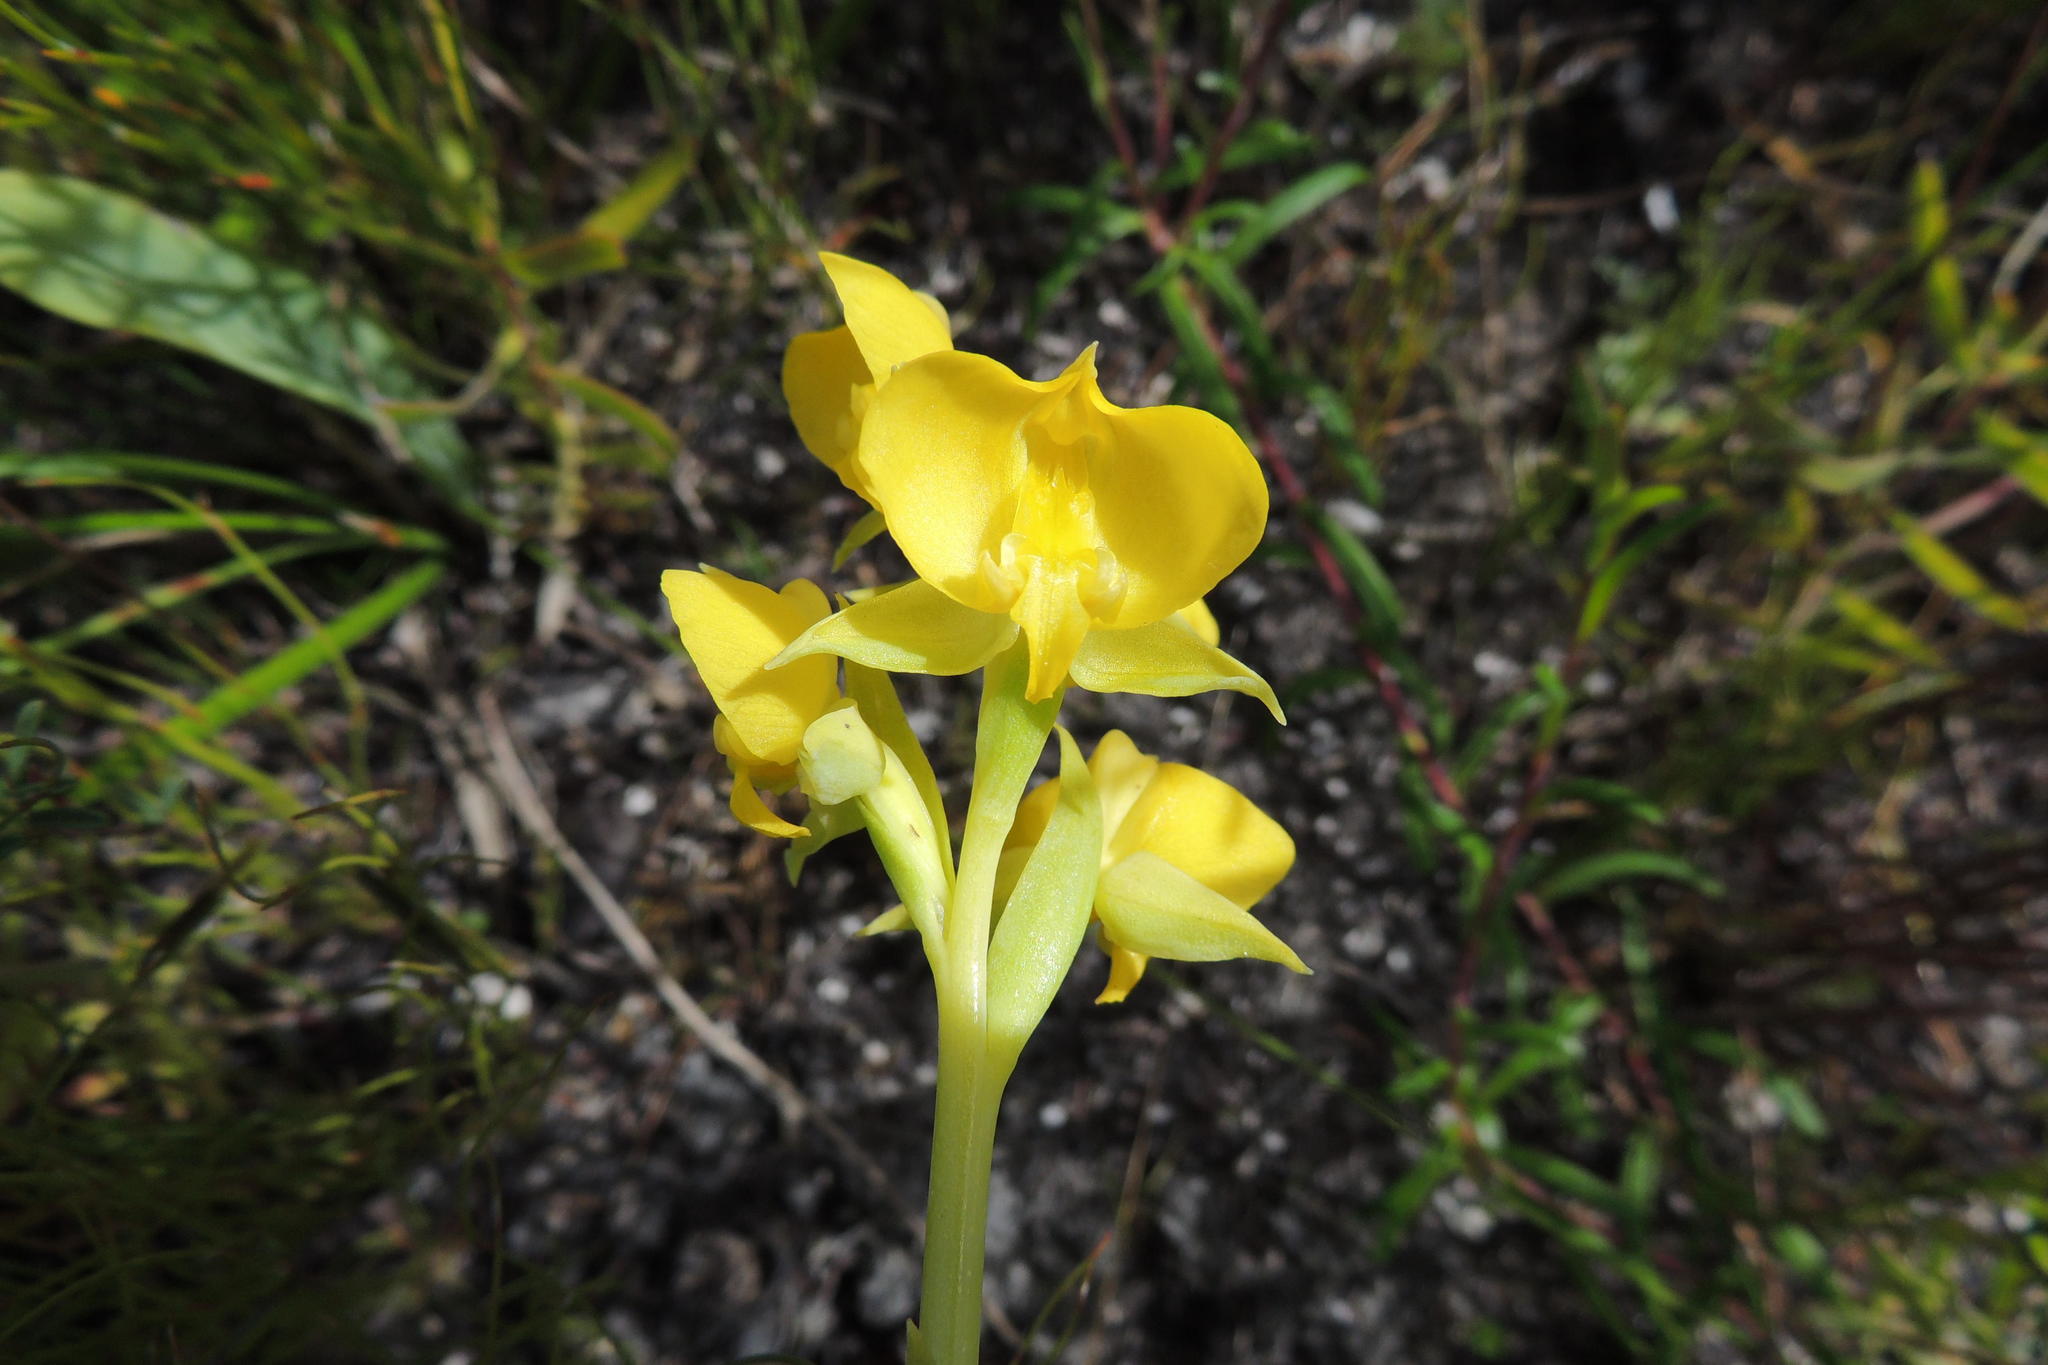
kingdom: Plantae
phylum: Tracheophyta
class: Liliopsida
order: Asparagales
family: Orchidaceae
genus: Pterygodium
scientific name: Pterygodium acutifolium
